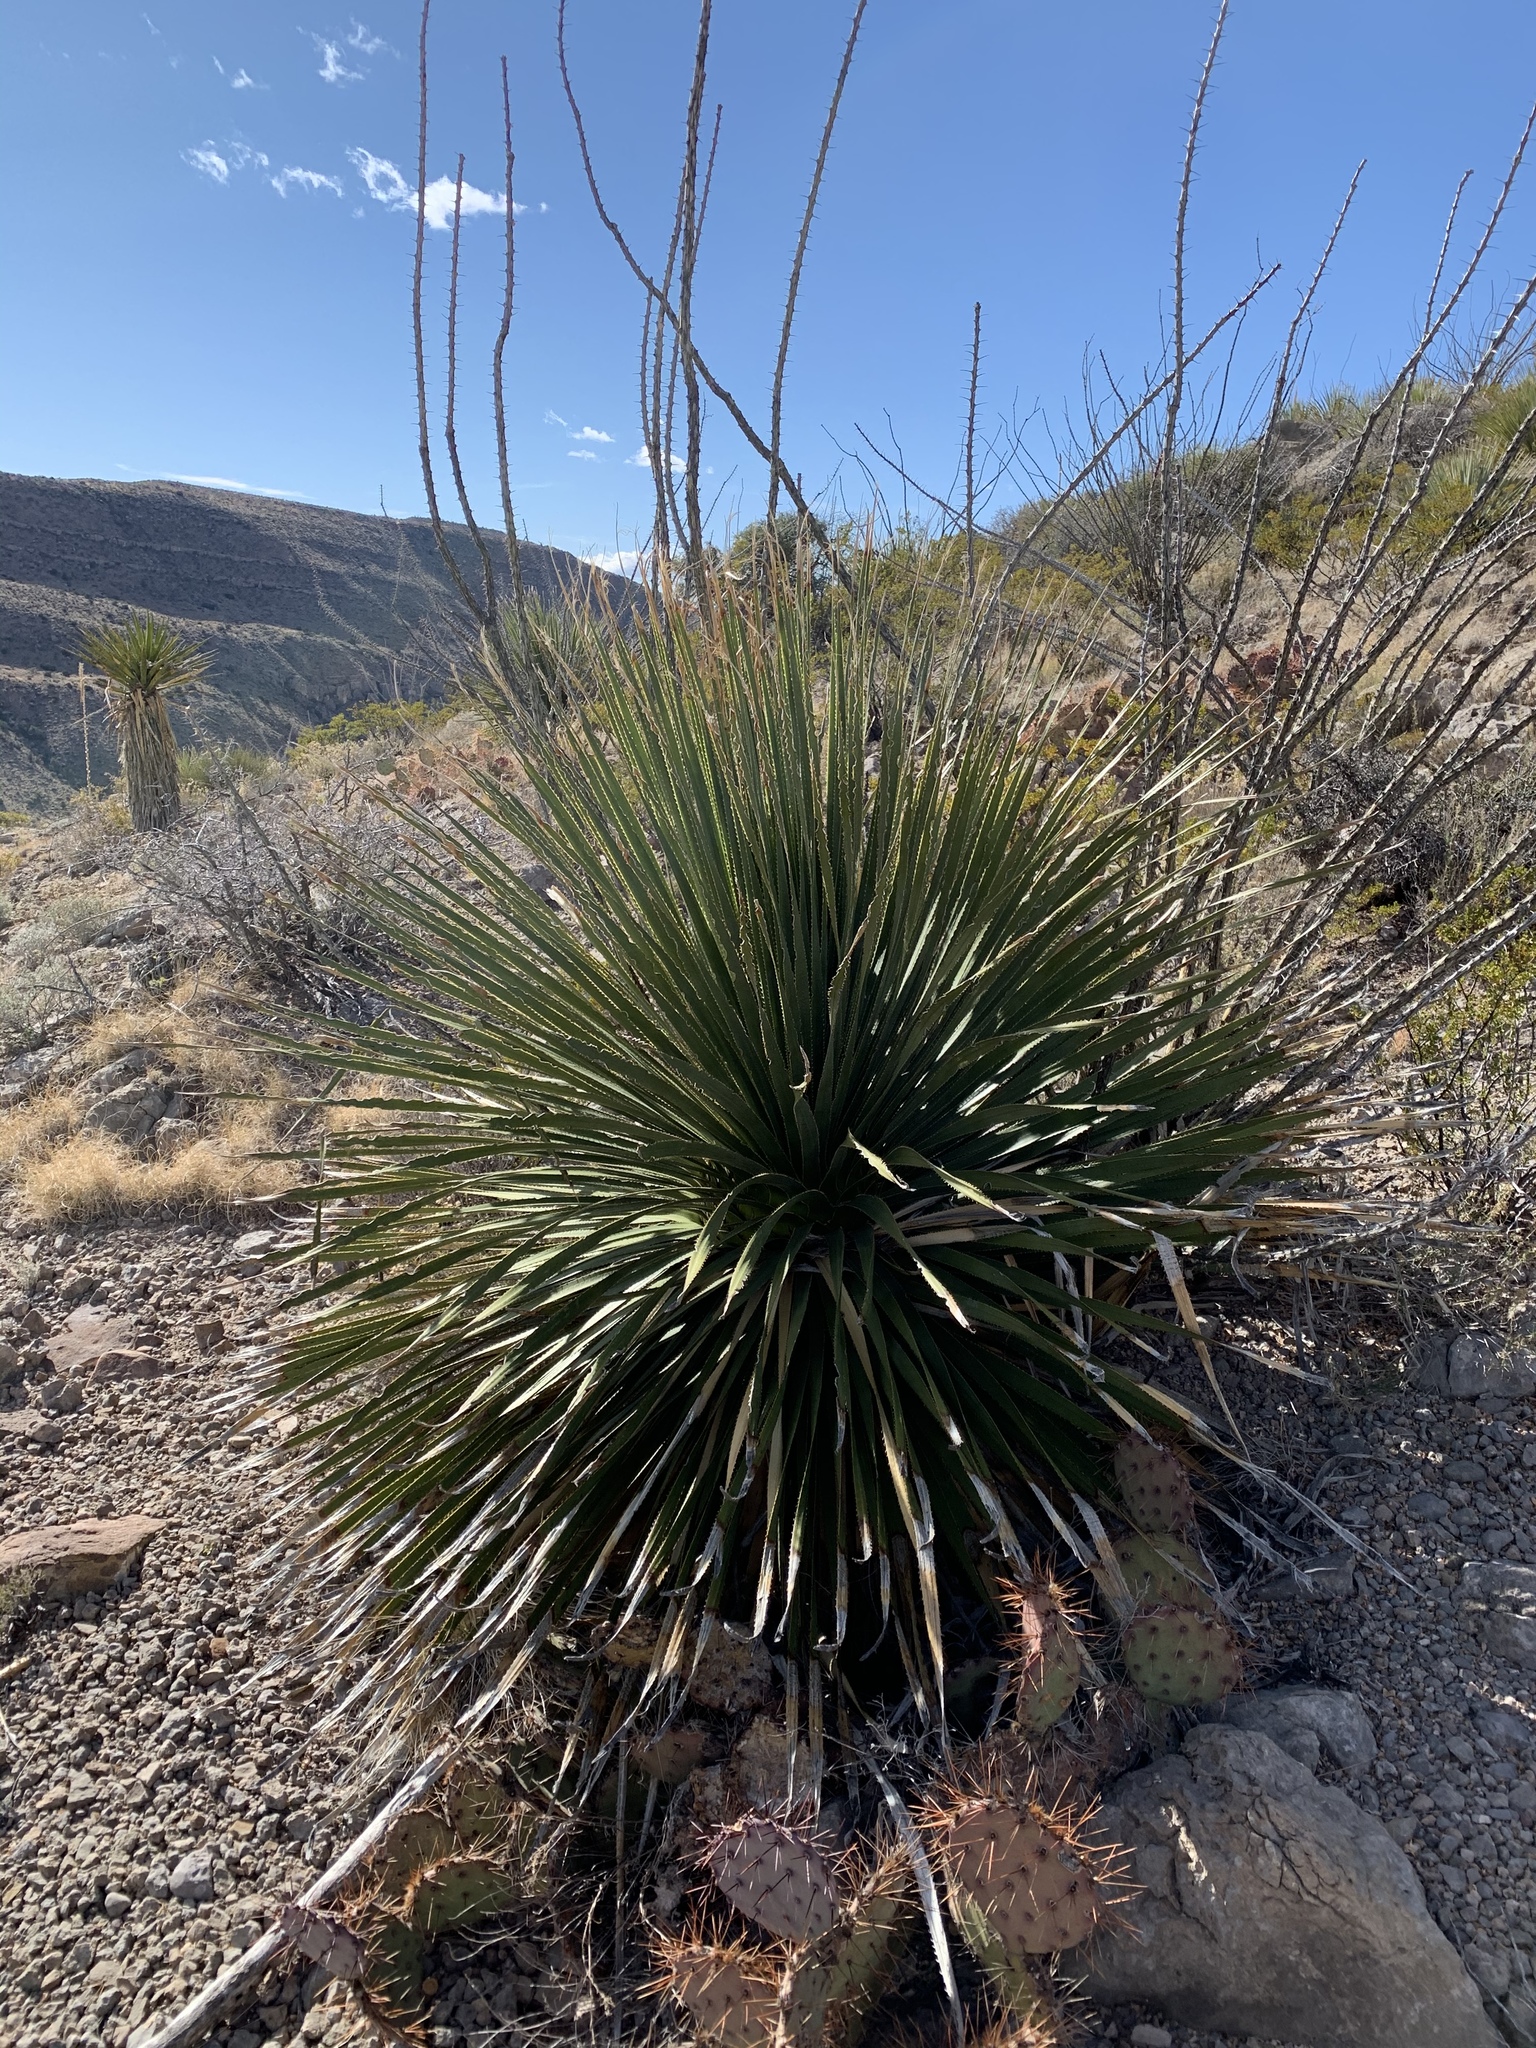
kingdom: Plantae
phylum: Tracheophyta
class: Liliopsida
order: Asparagales
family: Asparagaceae
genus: Dasylirion
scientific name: Dasylirion wheeleri
